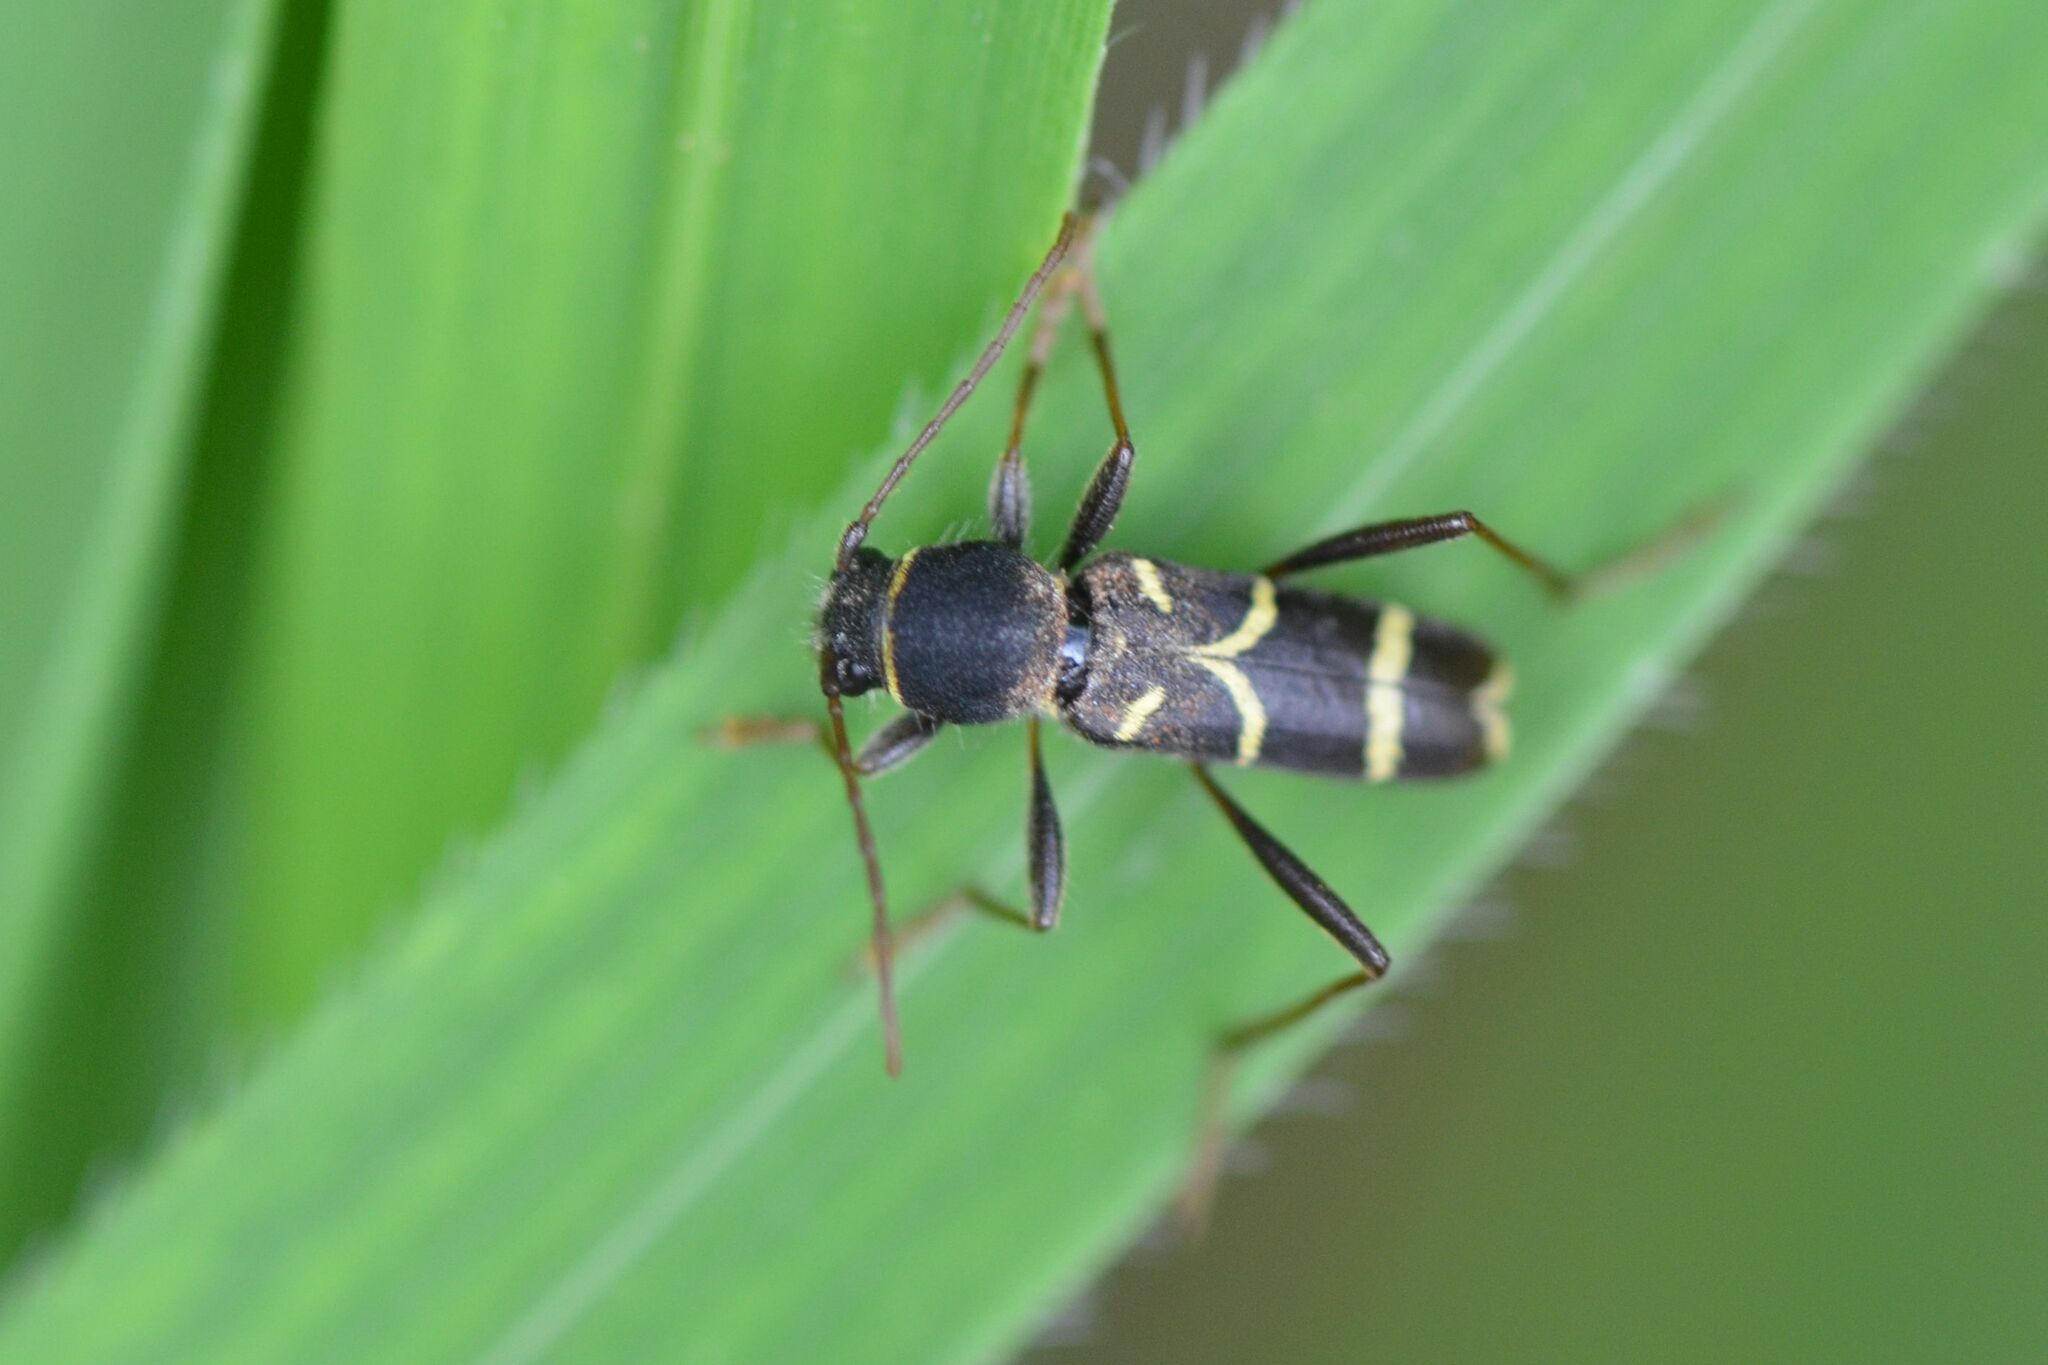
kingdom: Animalia
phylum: Arthropoda
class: Insecta
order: Coleoptera
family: Cerambycidae
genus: Clytus
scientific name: Clytus lama
